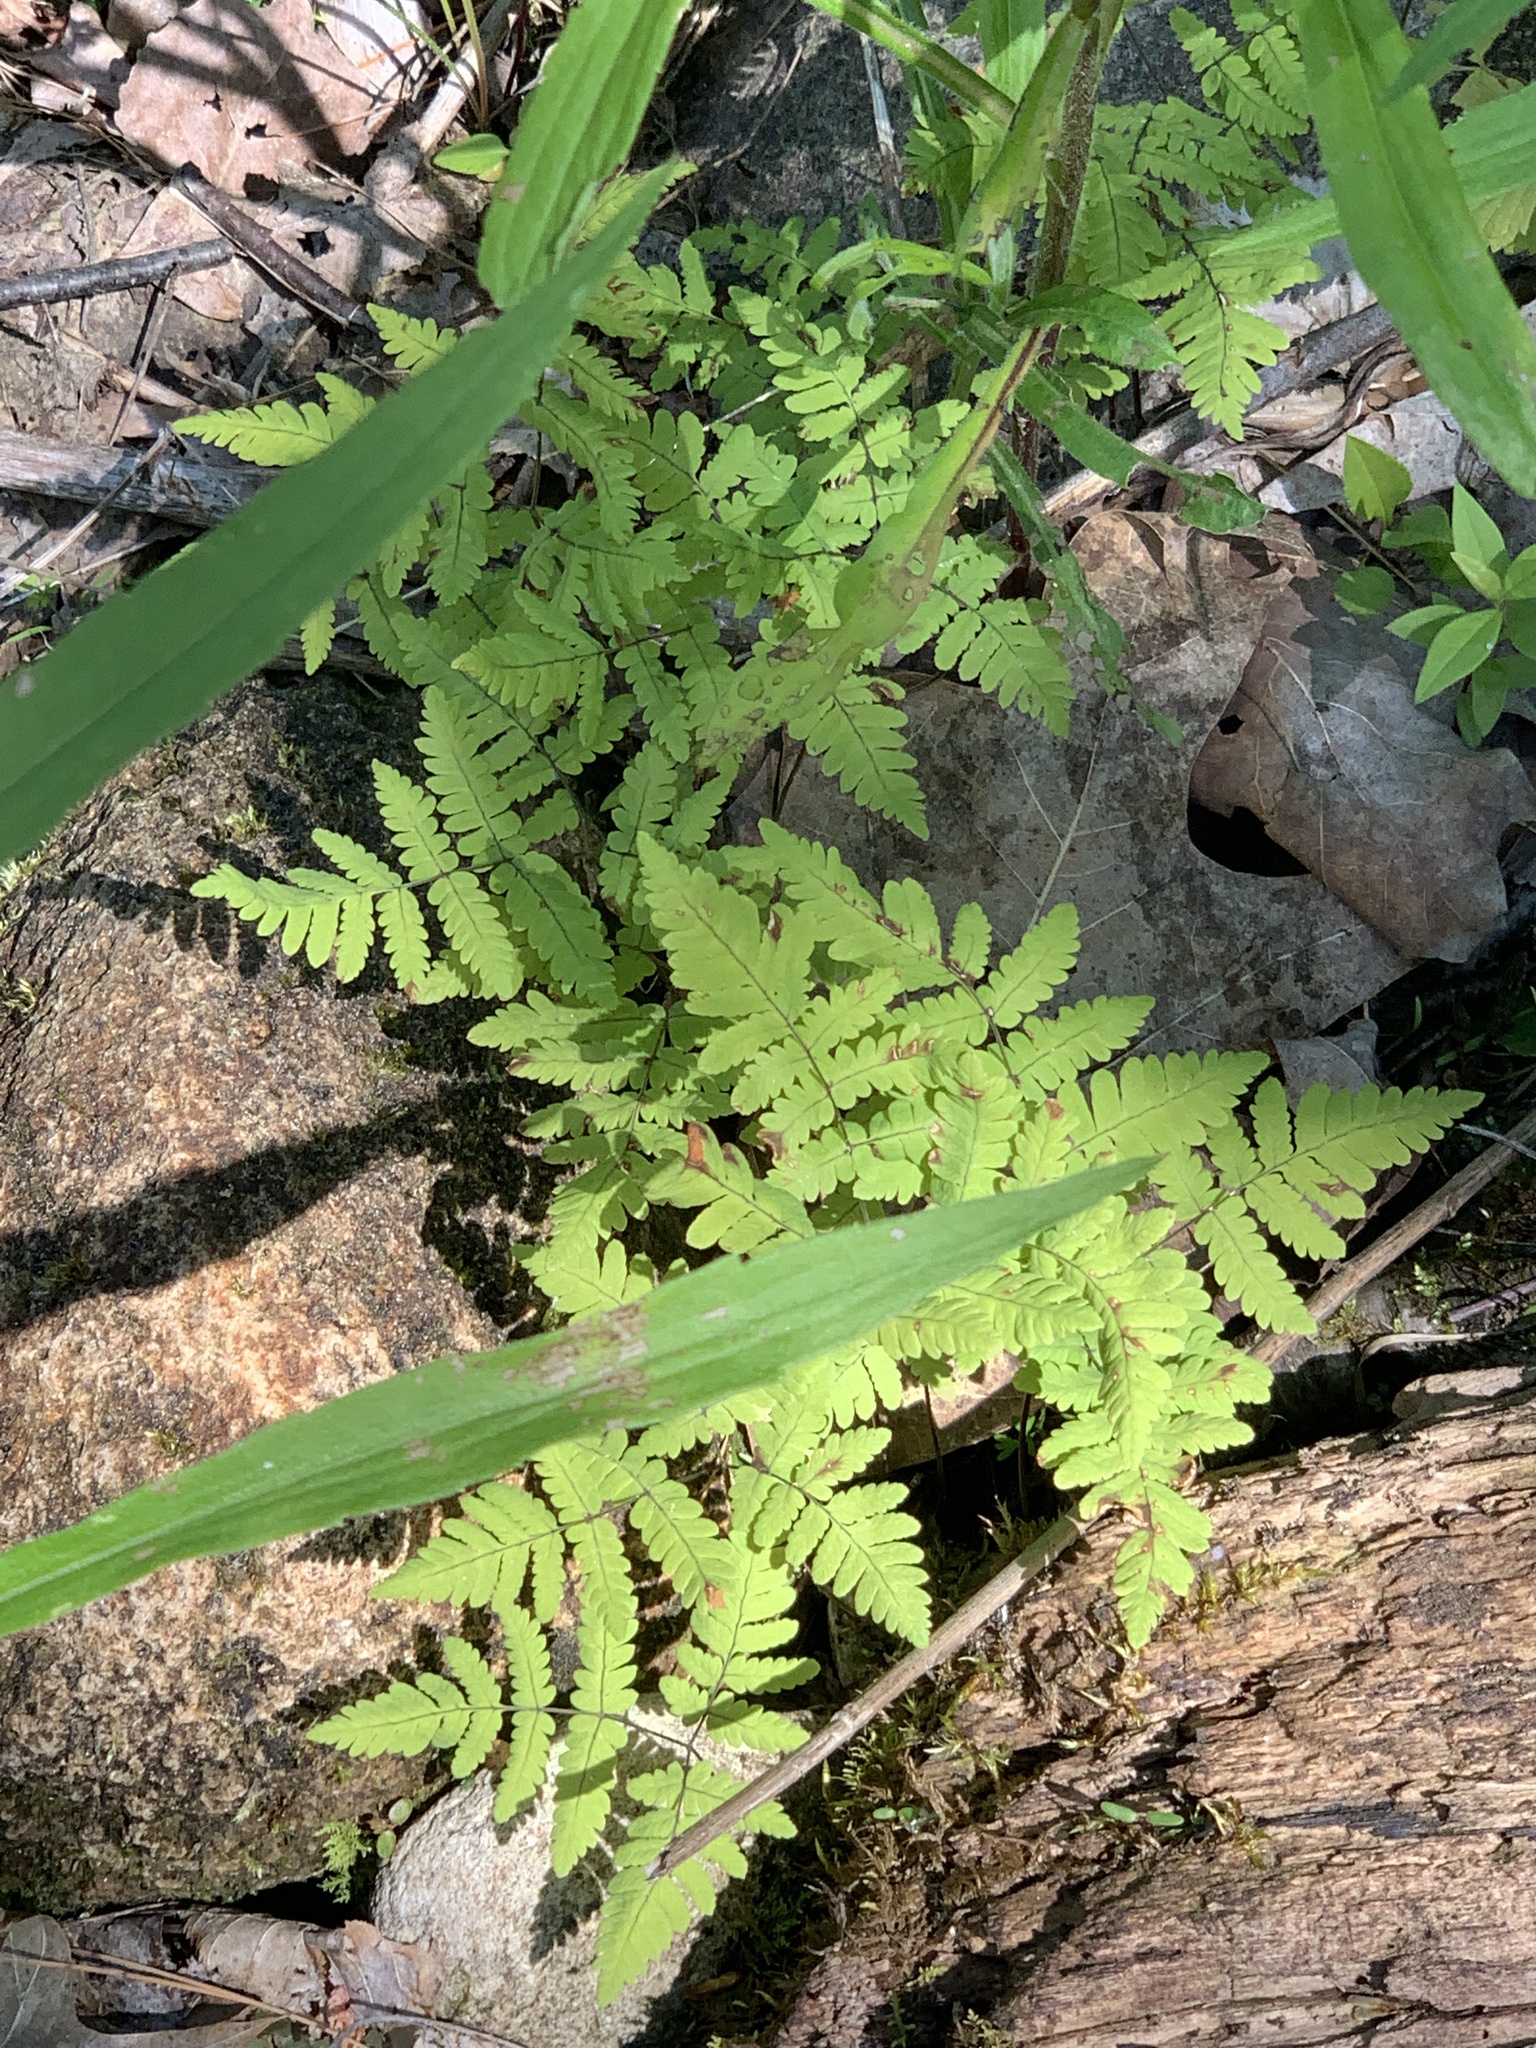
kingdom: Plantae
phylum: Tracheophyta
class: Polypodiopsida
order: Polypodiales
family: Cystopteridaceae
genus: Gymnocarpium
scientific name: Gymnocarpium dryopteris
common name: Oak fern
